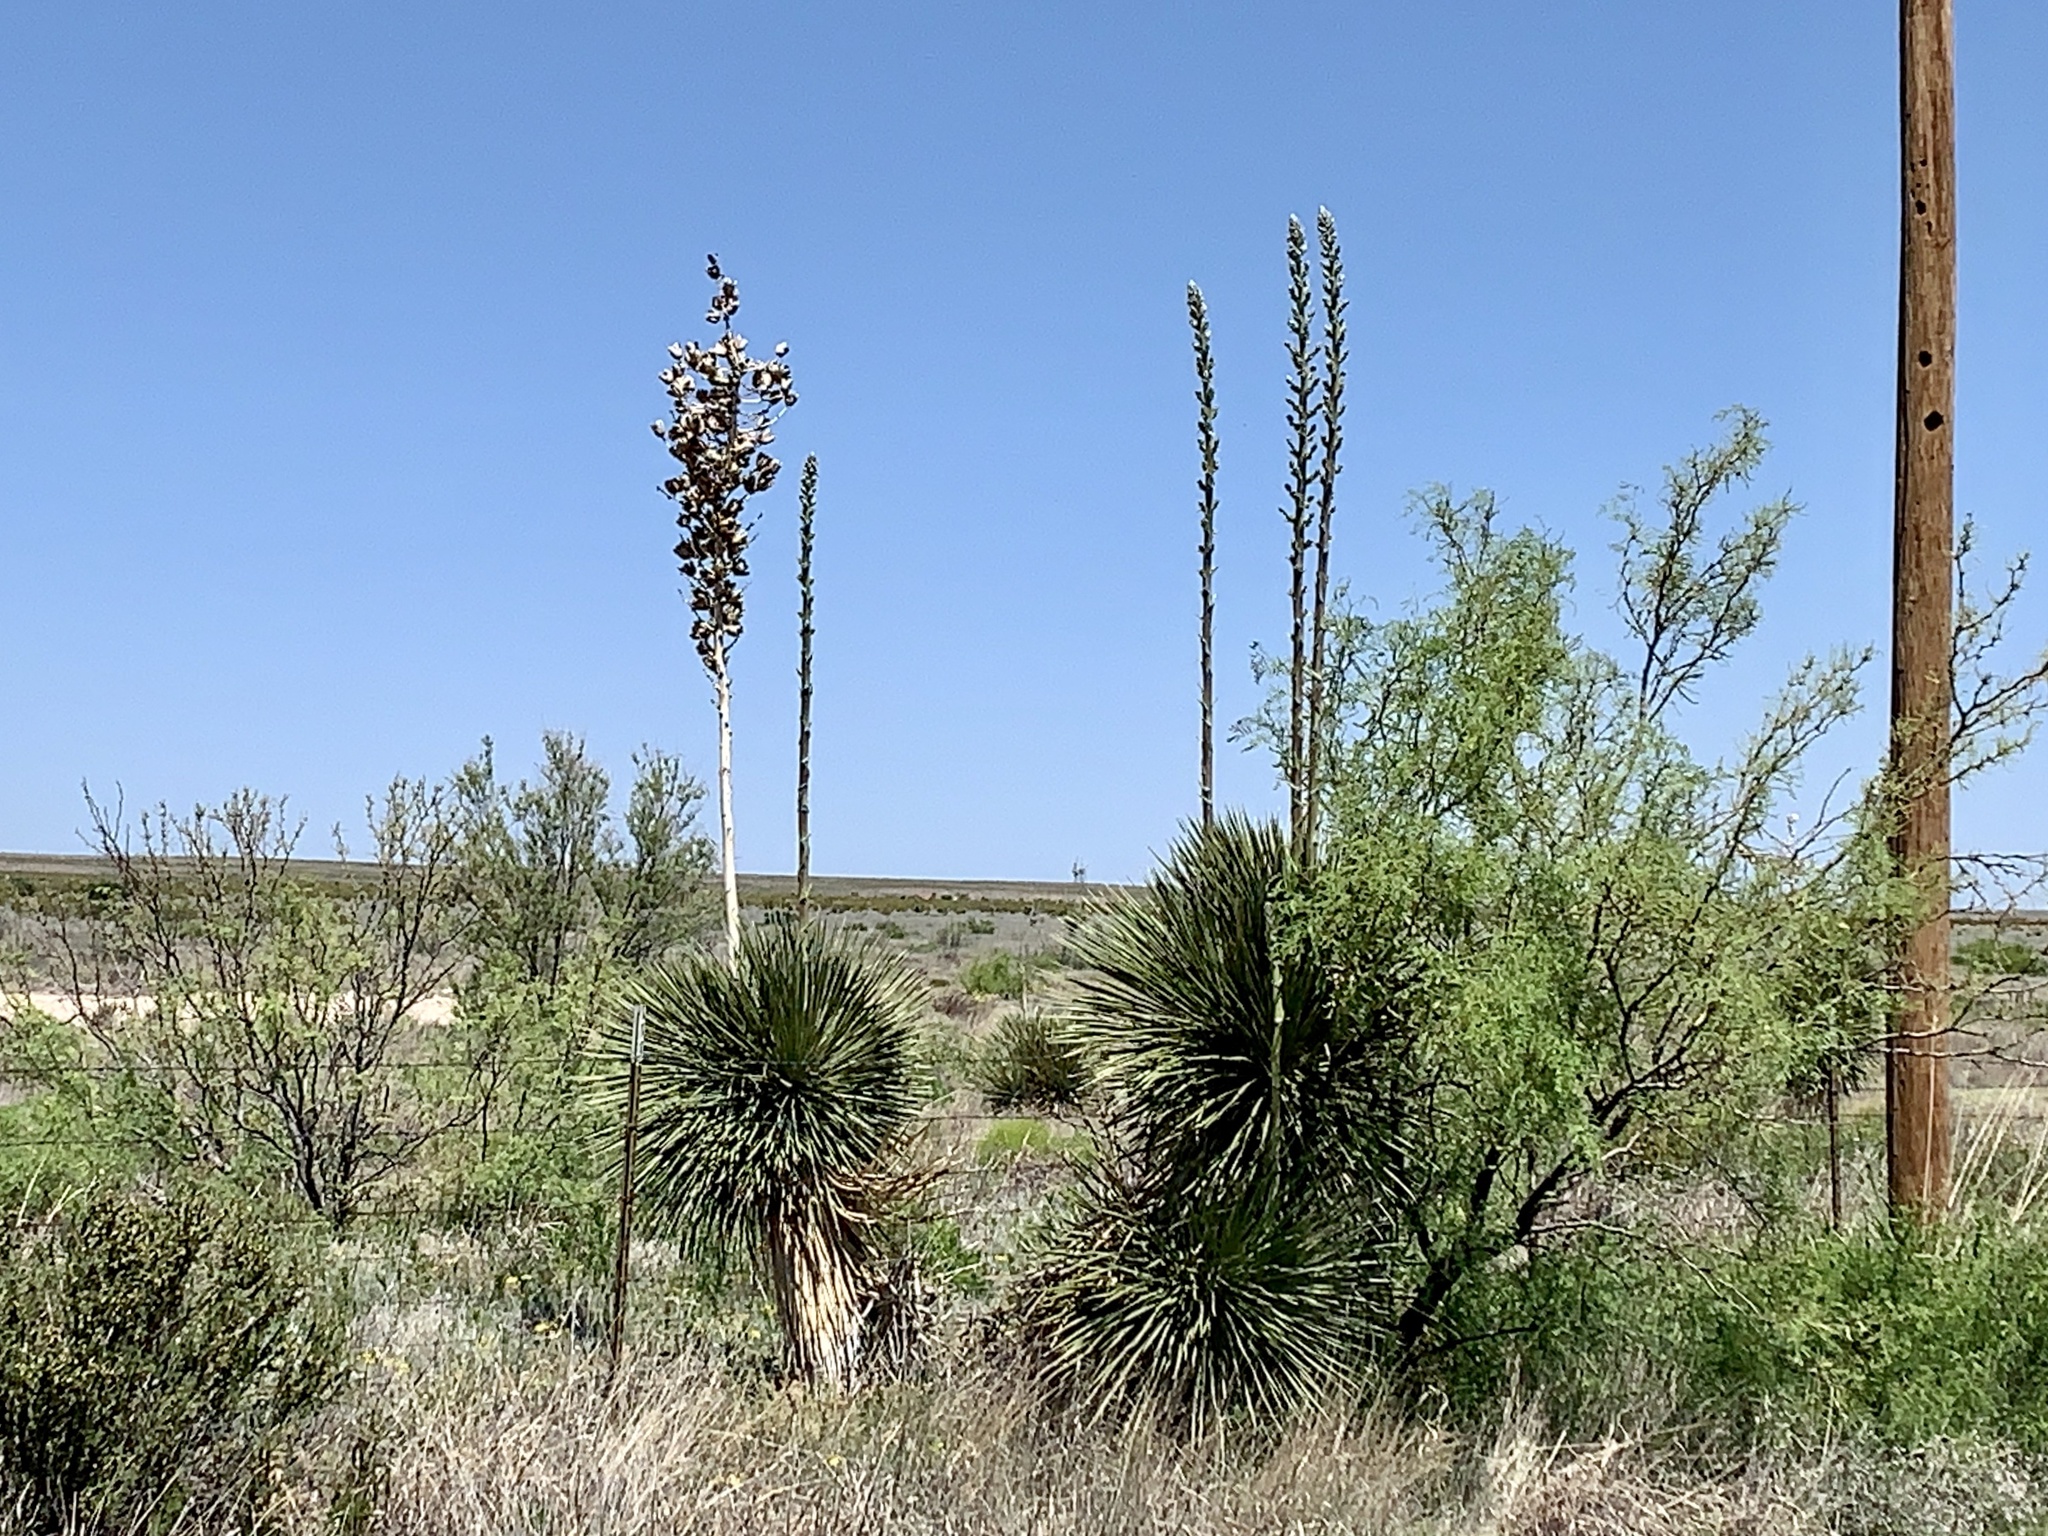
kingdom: Plantae
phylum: Tracheophyta
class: Liliopsida
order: Asparagales
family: Asparagaceae
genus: Yucca
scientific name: Yucca elata
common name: Palmella
